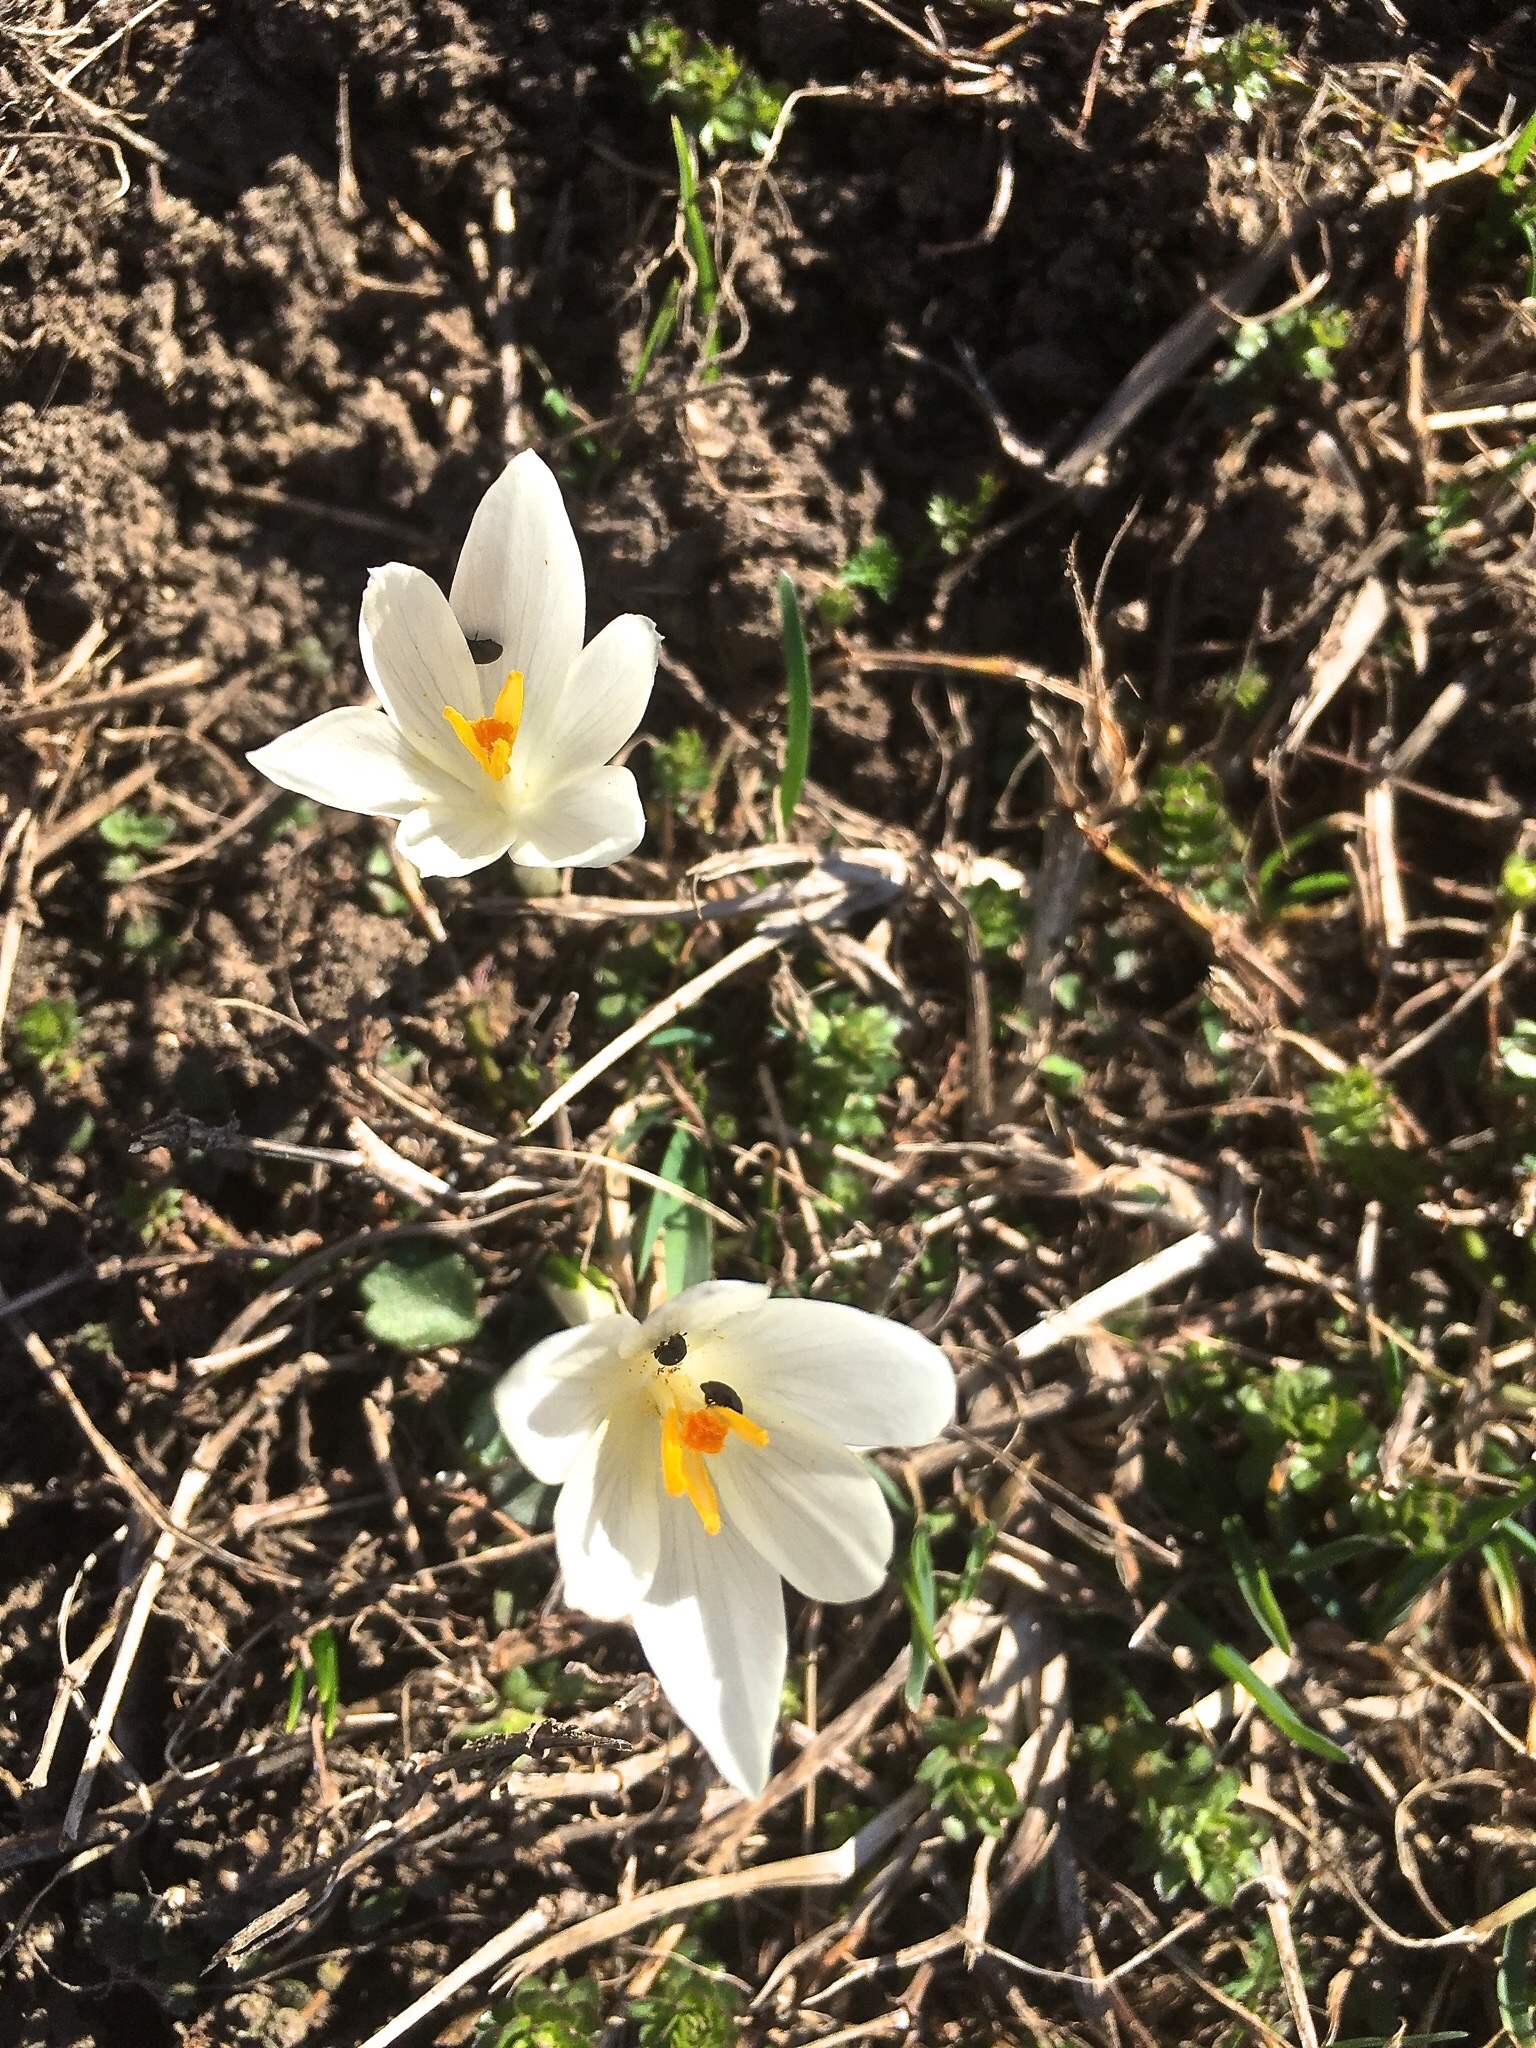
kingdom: Plantae
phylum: Tracheophyta
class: Liliopsida
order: Asparagales
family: Iridaceae
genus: Crocus
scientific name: Crocus vernus
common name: Spring crocus
